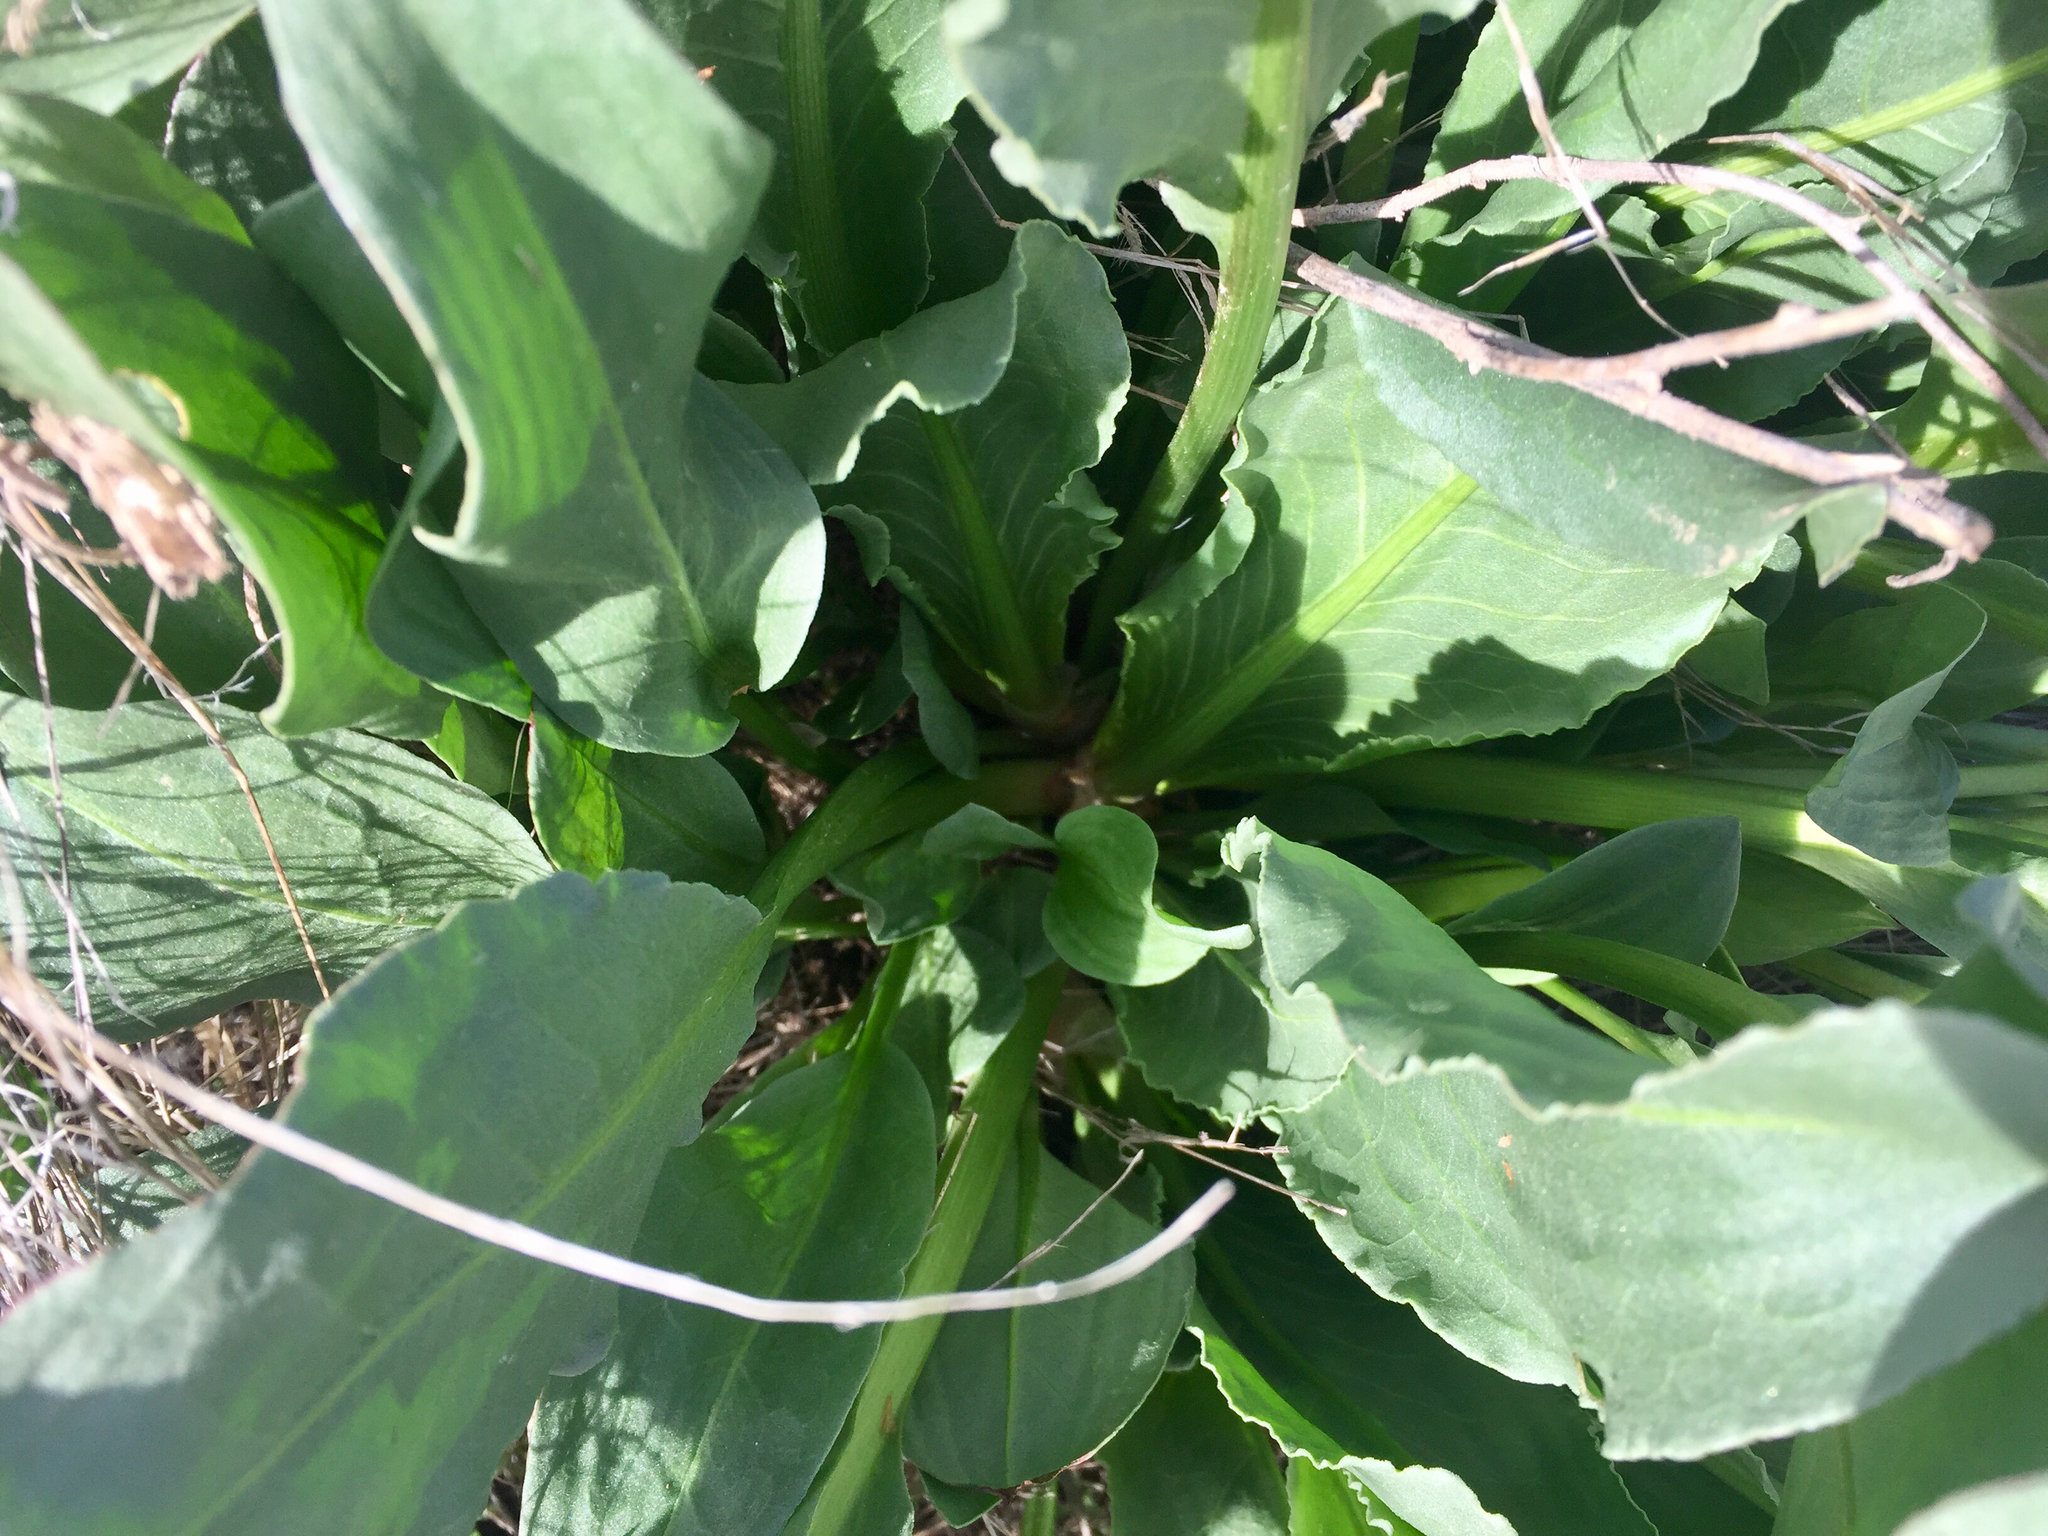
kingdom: Plantae
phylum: Tracheophyta
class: Magnoliopsida
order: Caryophyllales
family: Polygonaceae
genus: Rumex
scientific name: Rumex hymenosepalus
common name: Ganagra
